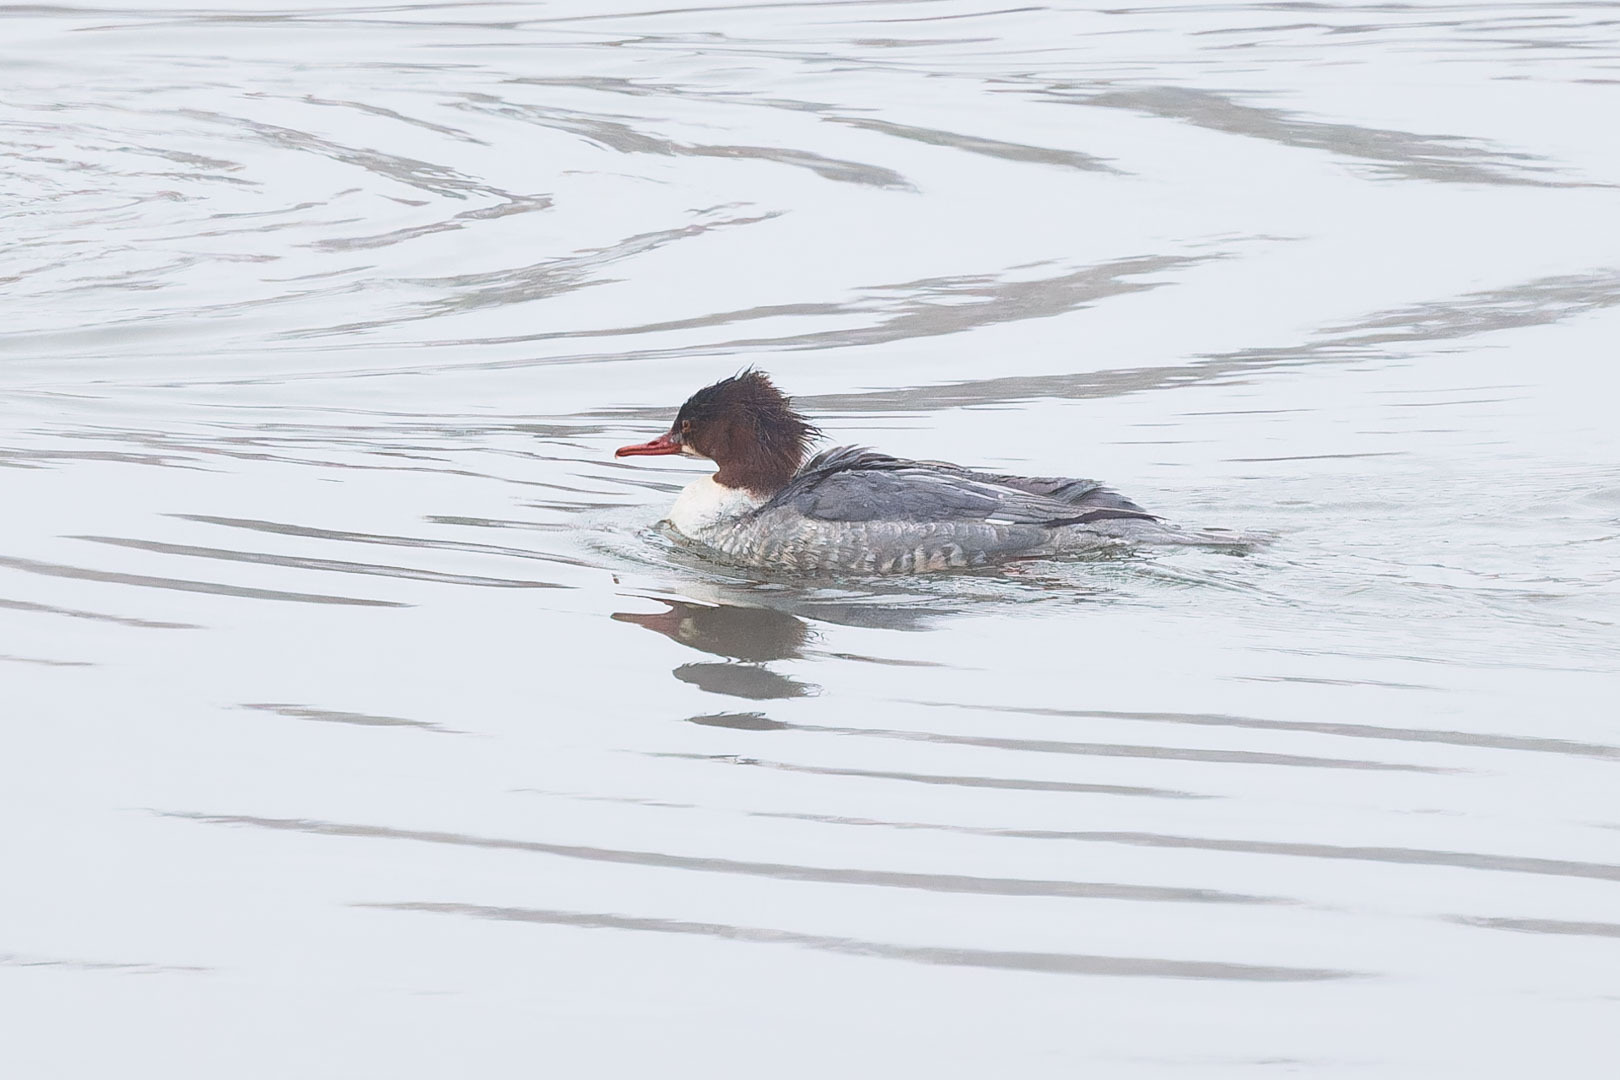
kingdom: Animalia
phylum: Chordata
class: Aves
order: Anseriformes
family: Anatidae
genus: Mergus
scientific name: Mergus merganser
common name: Common merganser
